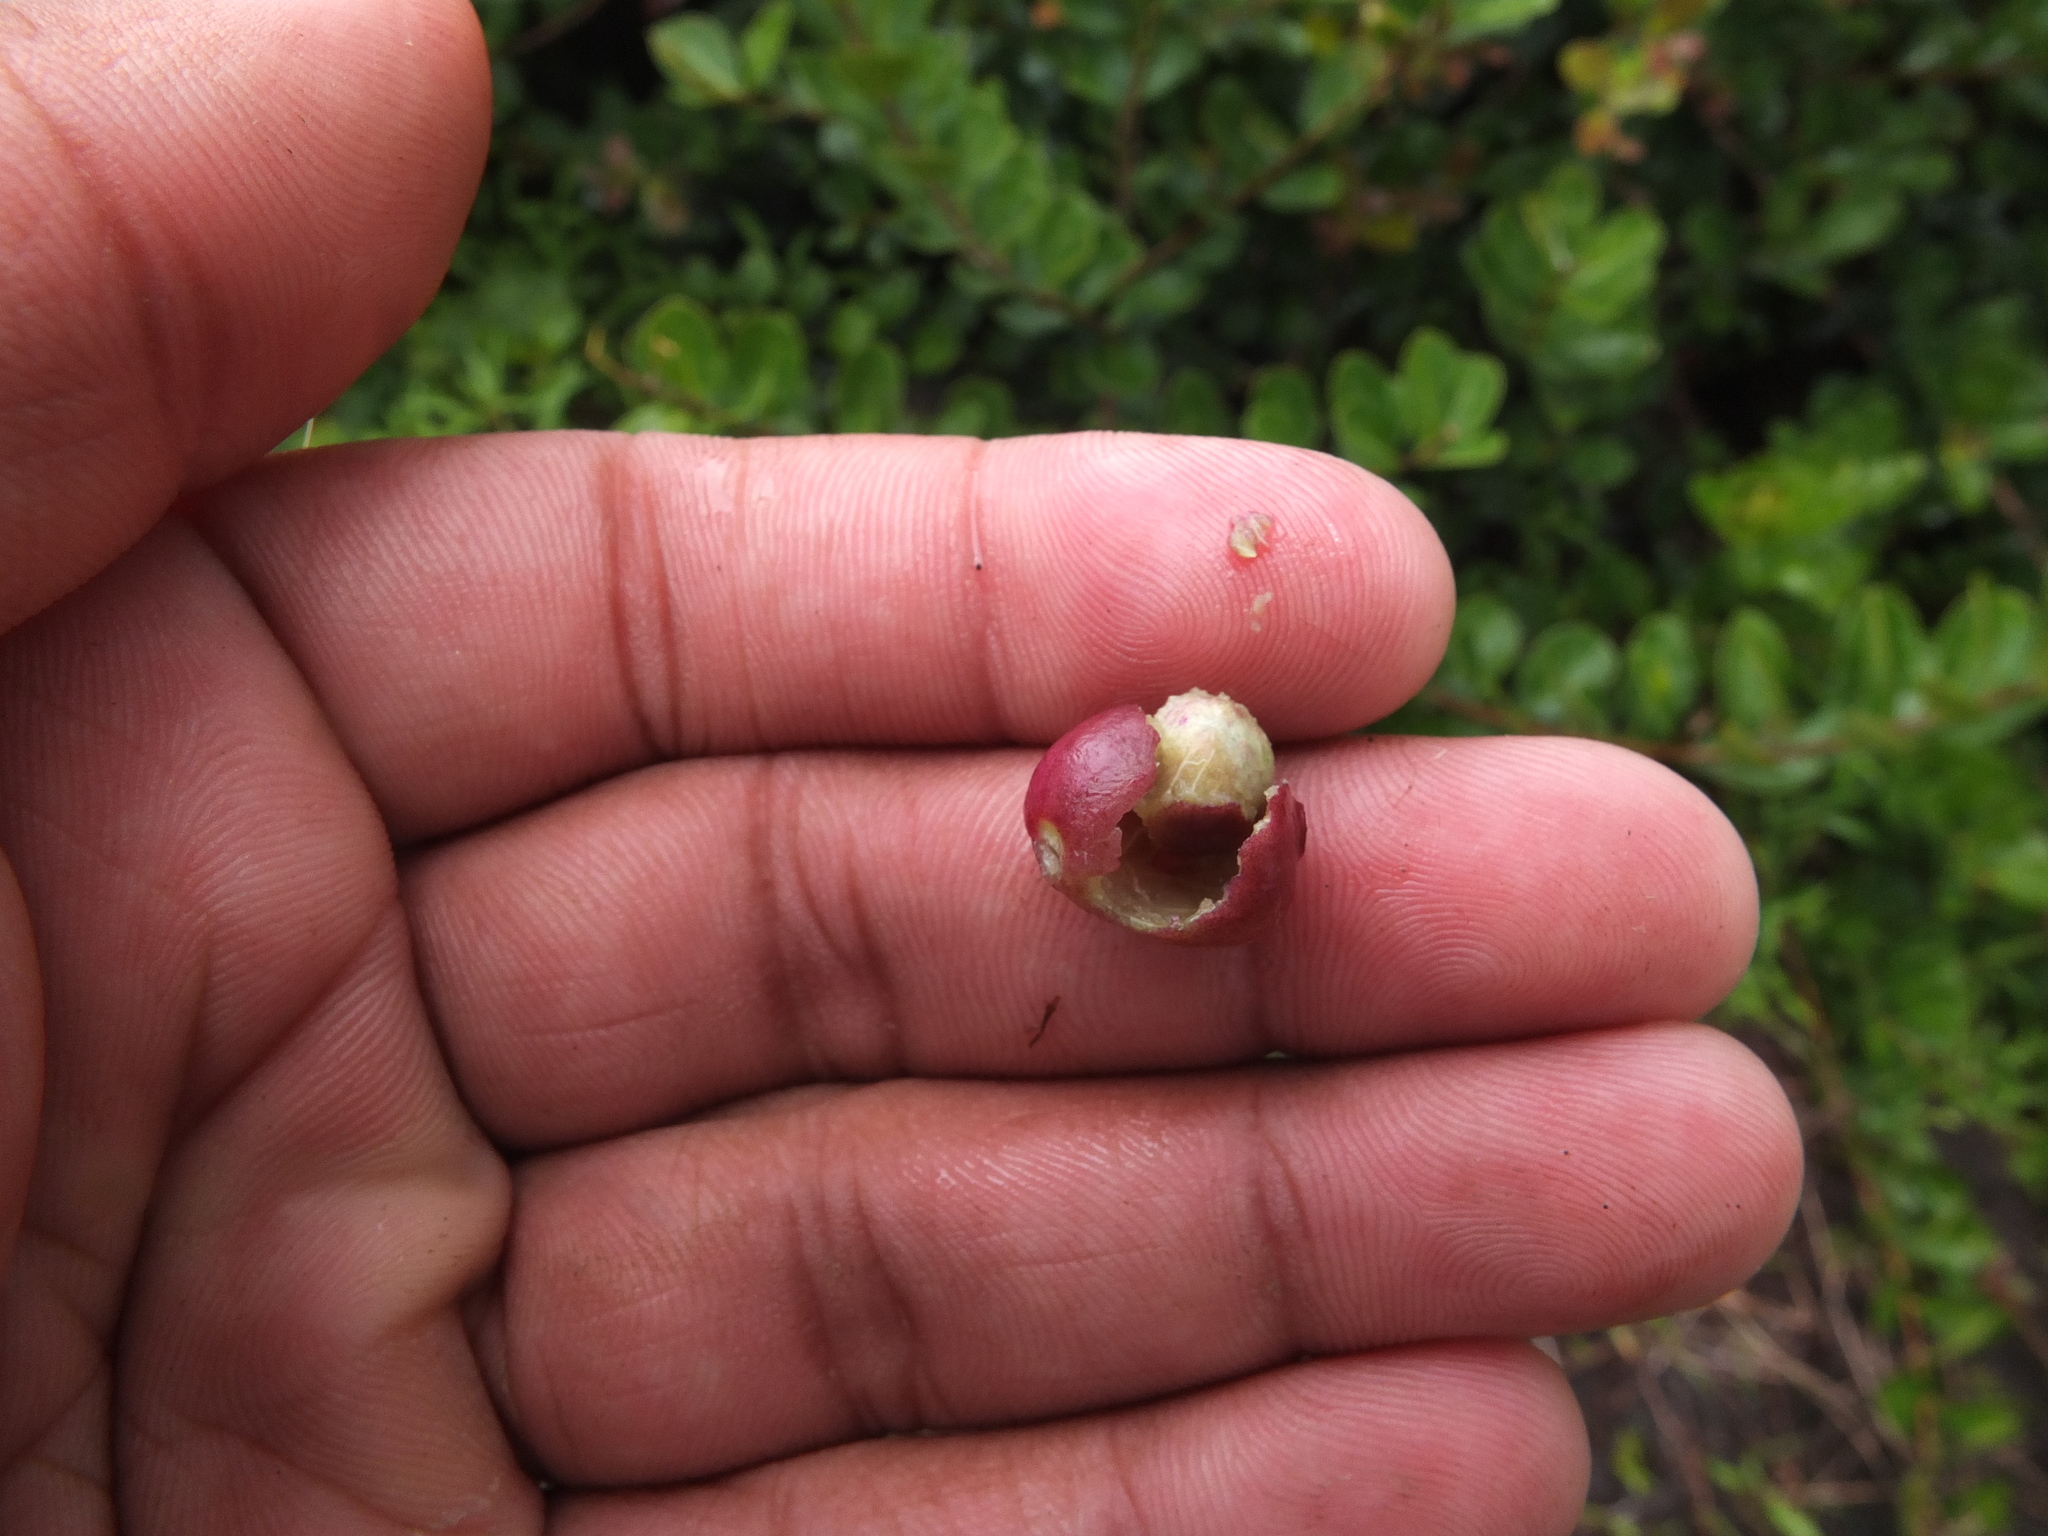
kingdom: Plantae
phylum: Tracheophyta
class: Magnoliopsida
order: Myrtales
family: Myrtaceae
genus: Syzygium
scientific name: Syzygium caryophyllatum
